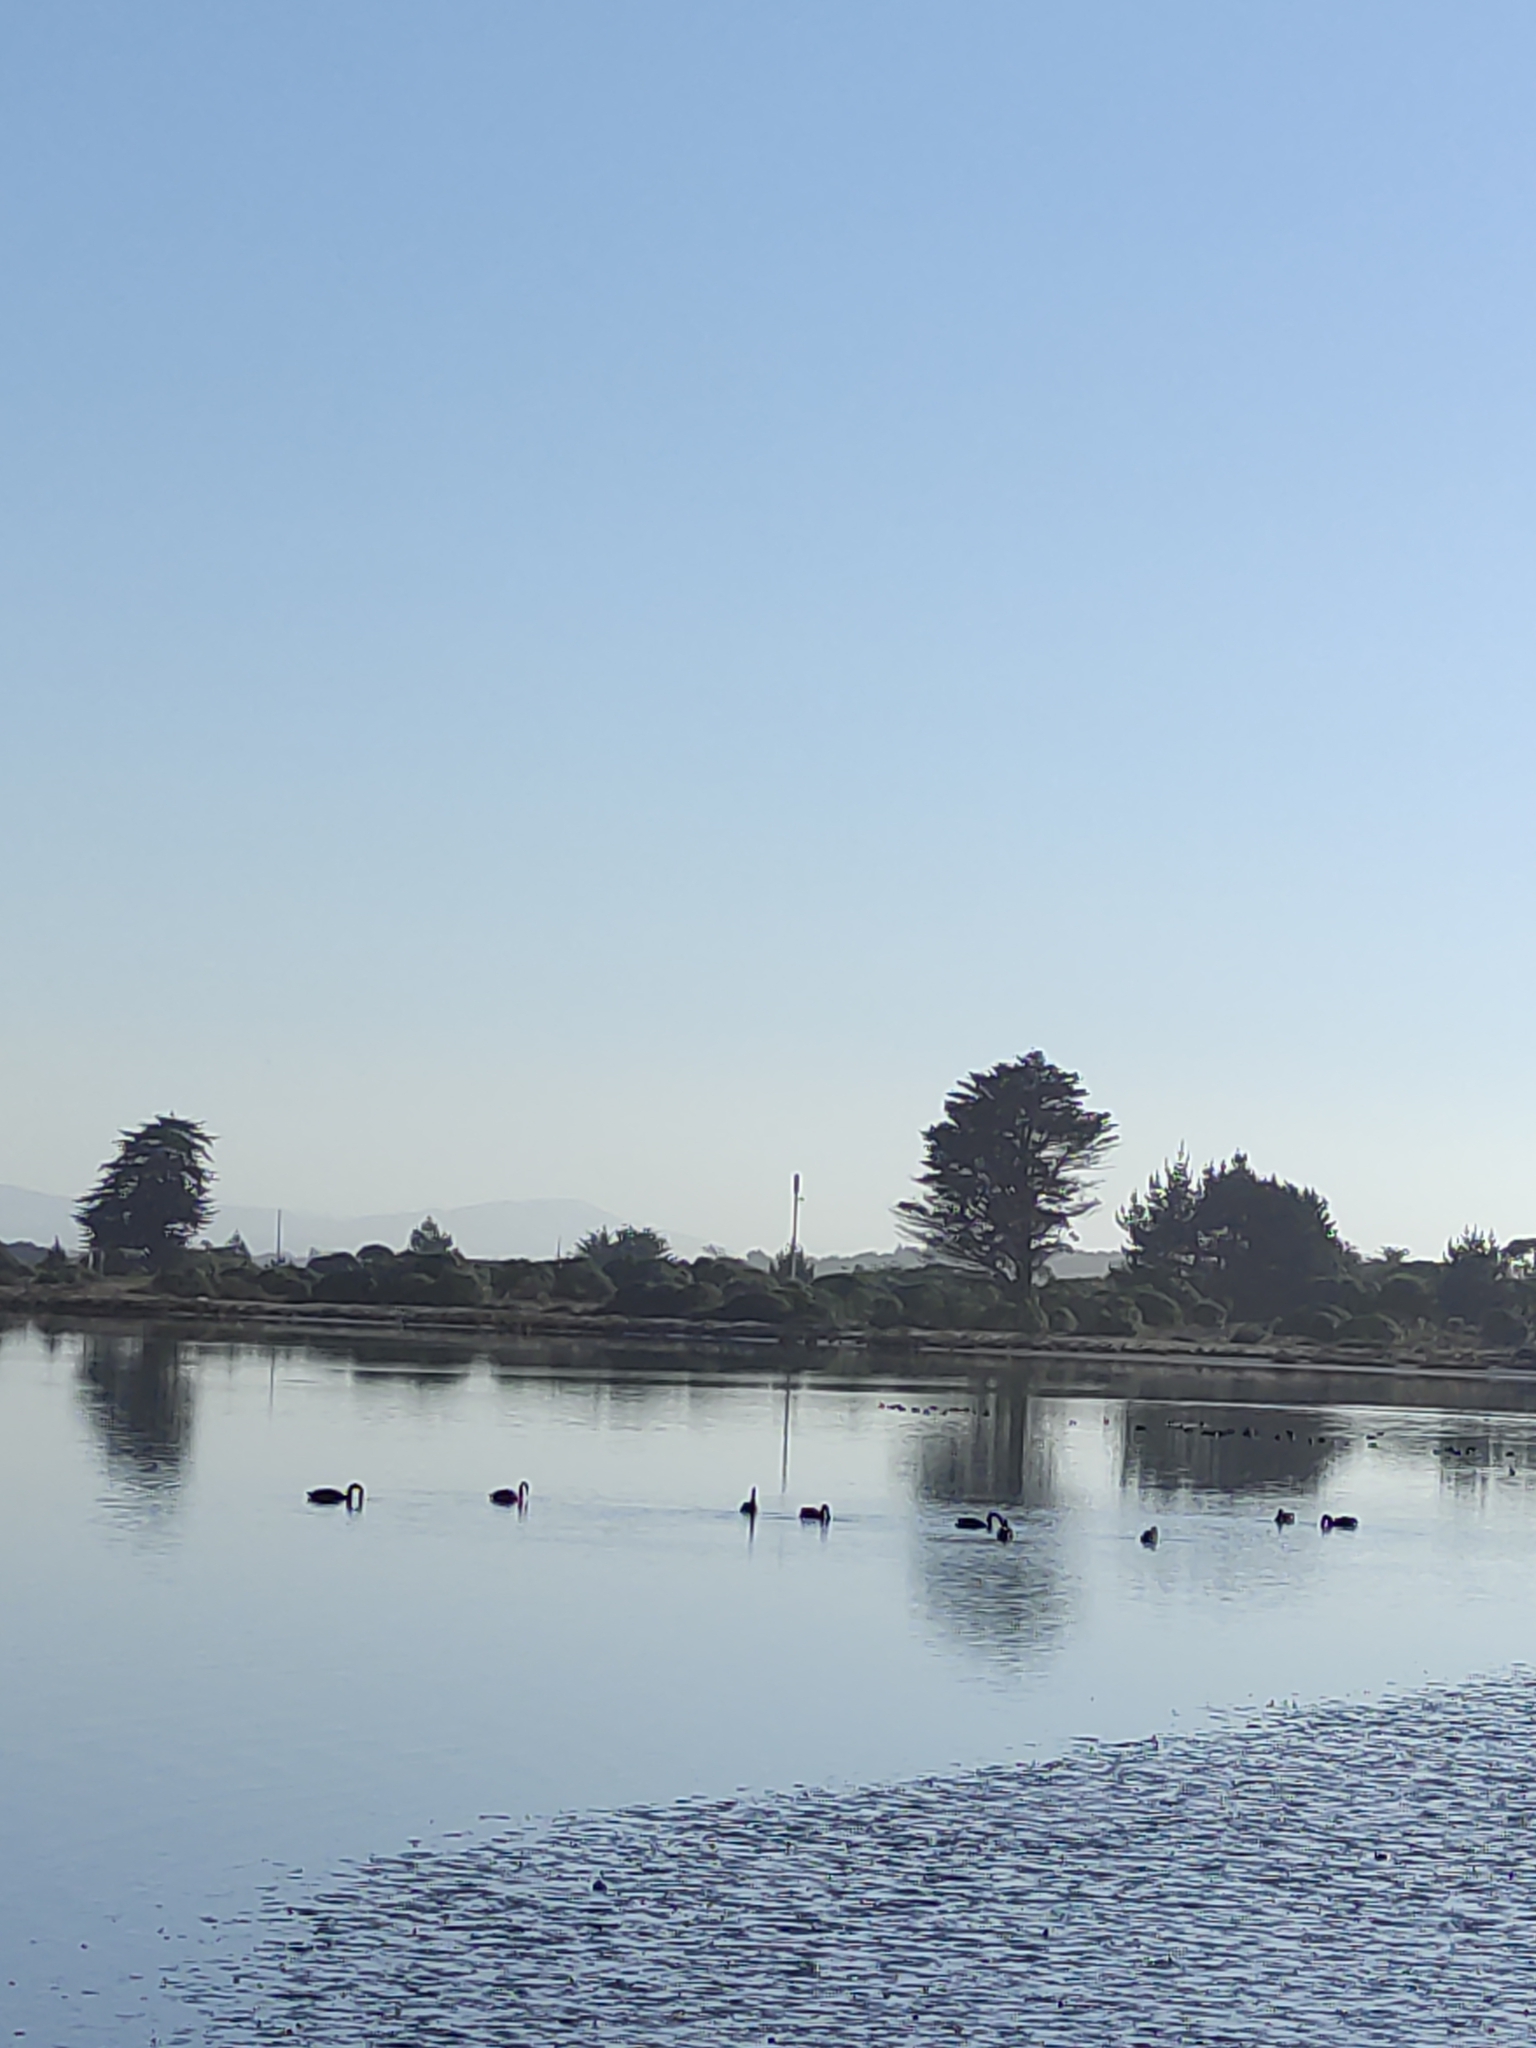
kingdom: Animalia
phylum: Chordata
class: Aves
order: Anseriformes
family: Anatidae
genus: Cygnus
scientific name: Cygnus atratus
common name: Black swan
